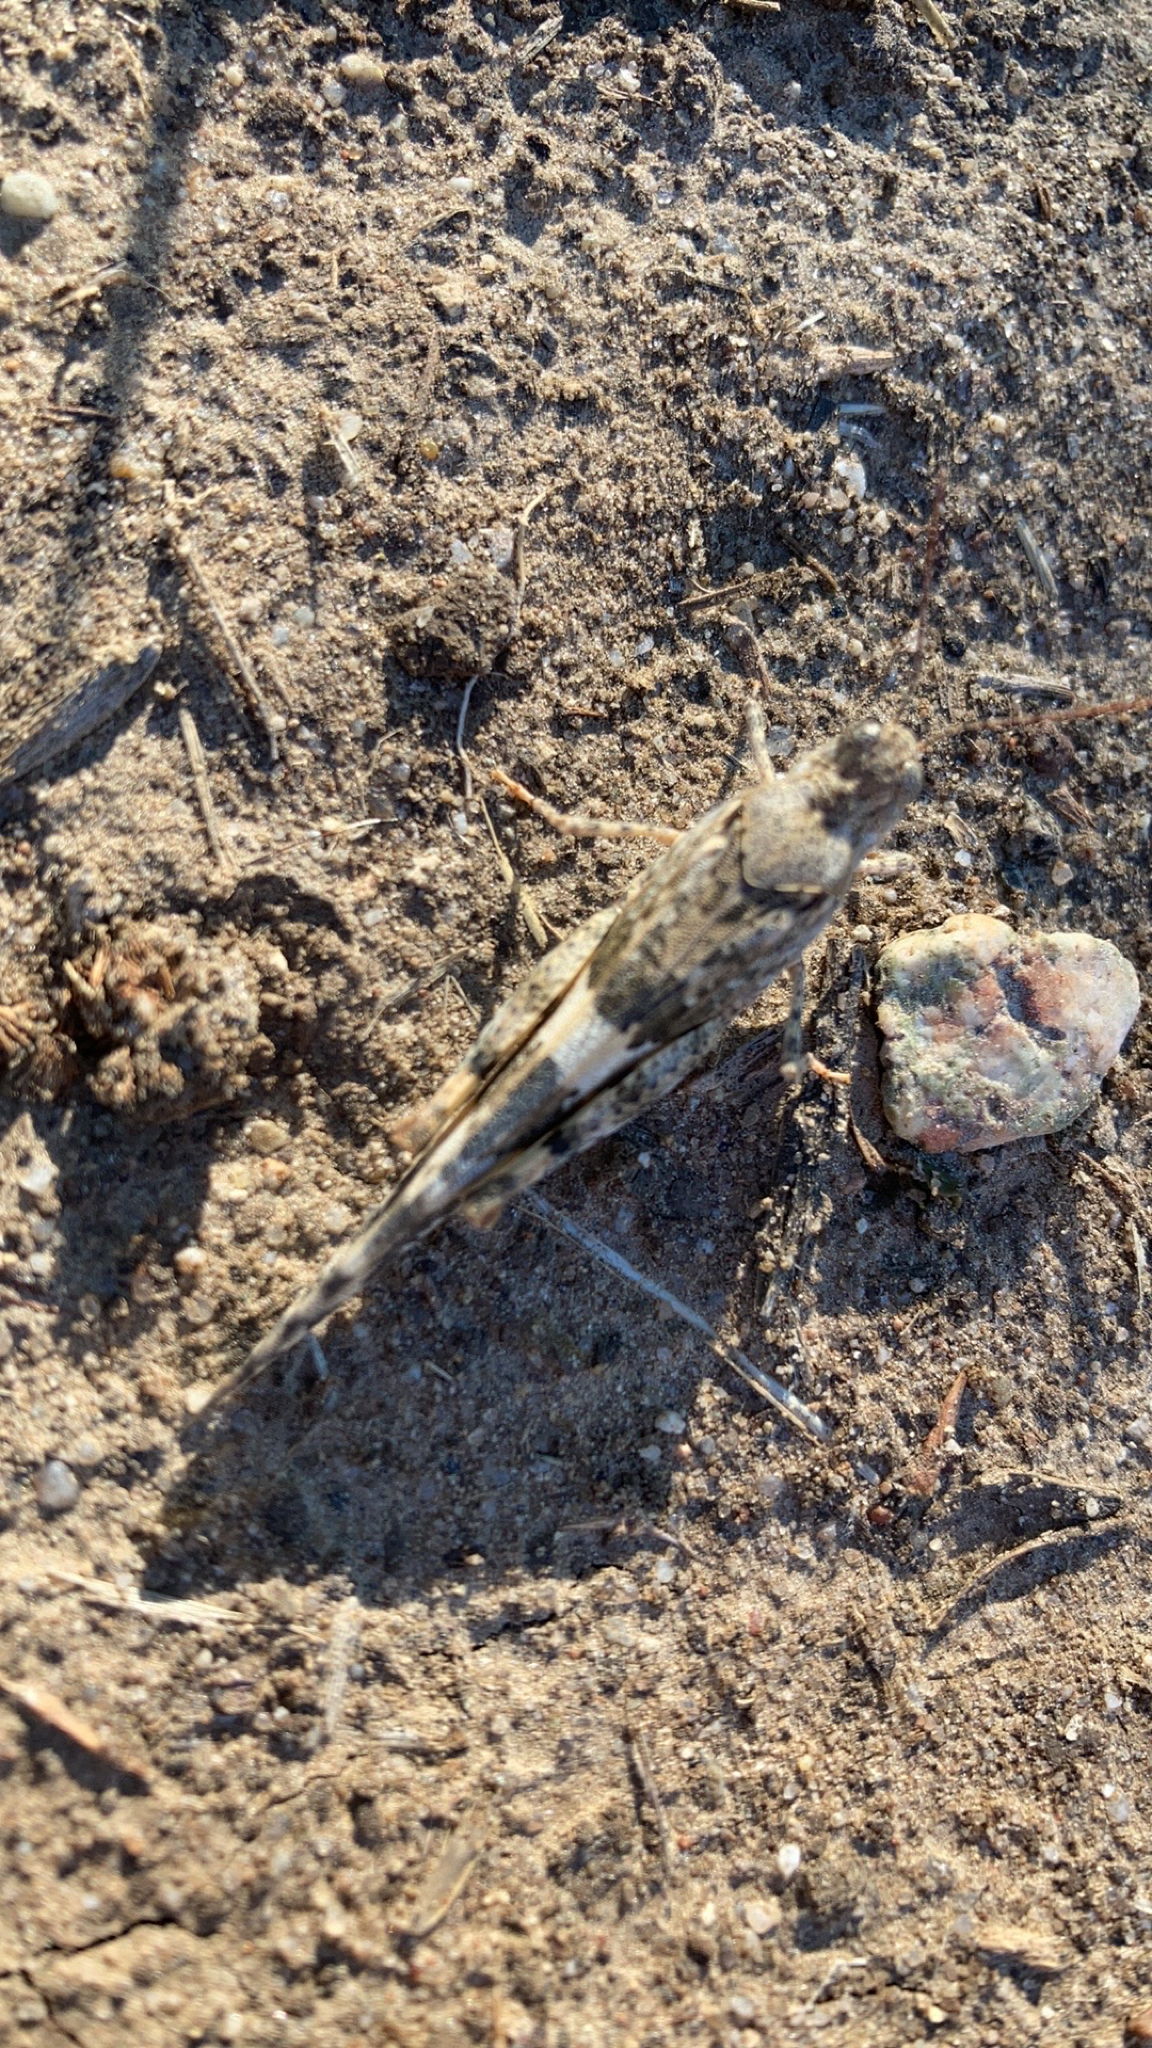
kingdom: Animalia
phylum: Arthropoda
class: Insecta
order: Orthoptera
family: Acrididae
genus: Trimerotropis
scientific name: Trimerotropis pallidipennis
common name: Pallid-winged grasshopper
